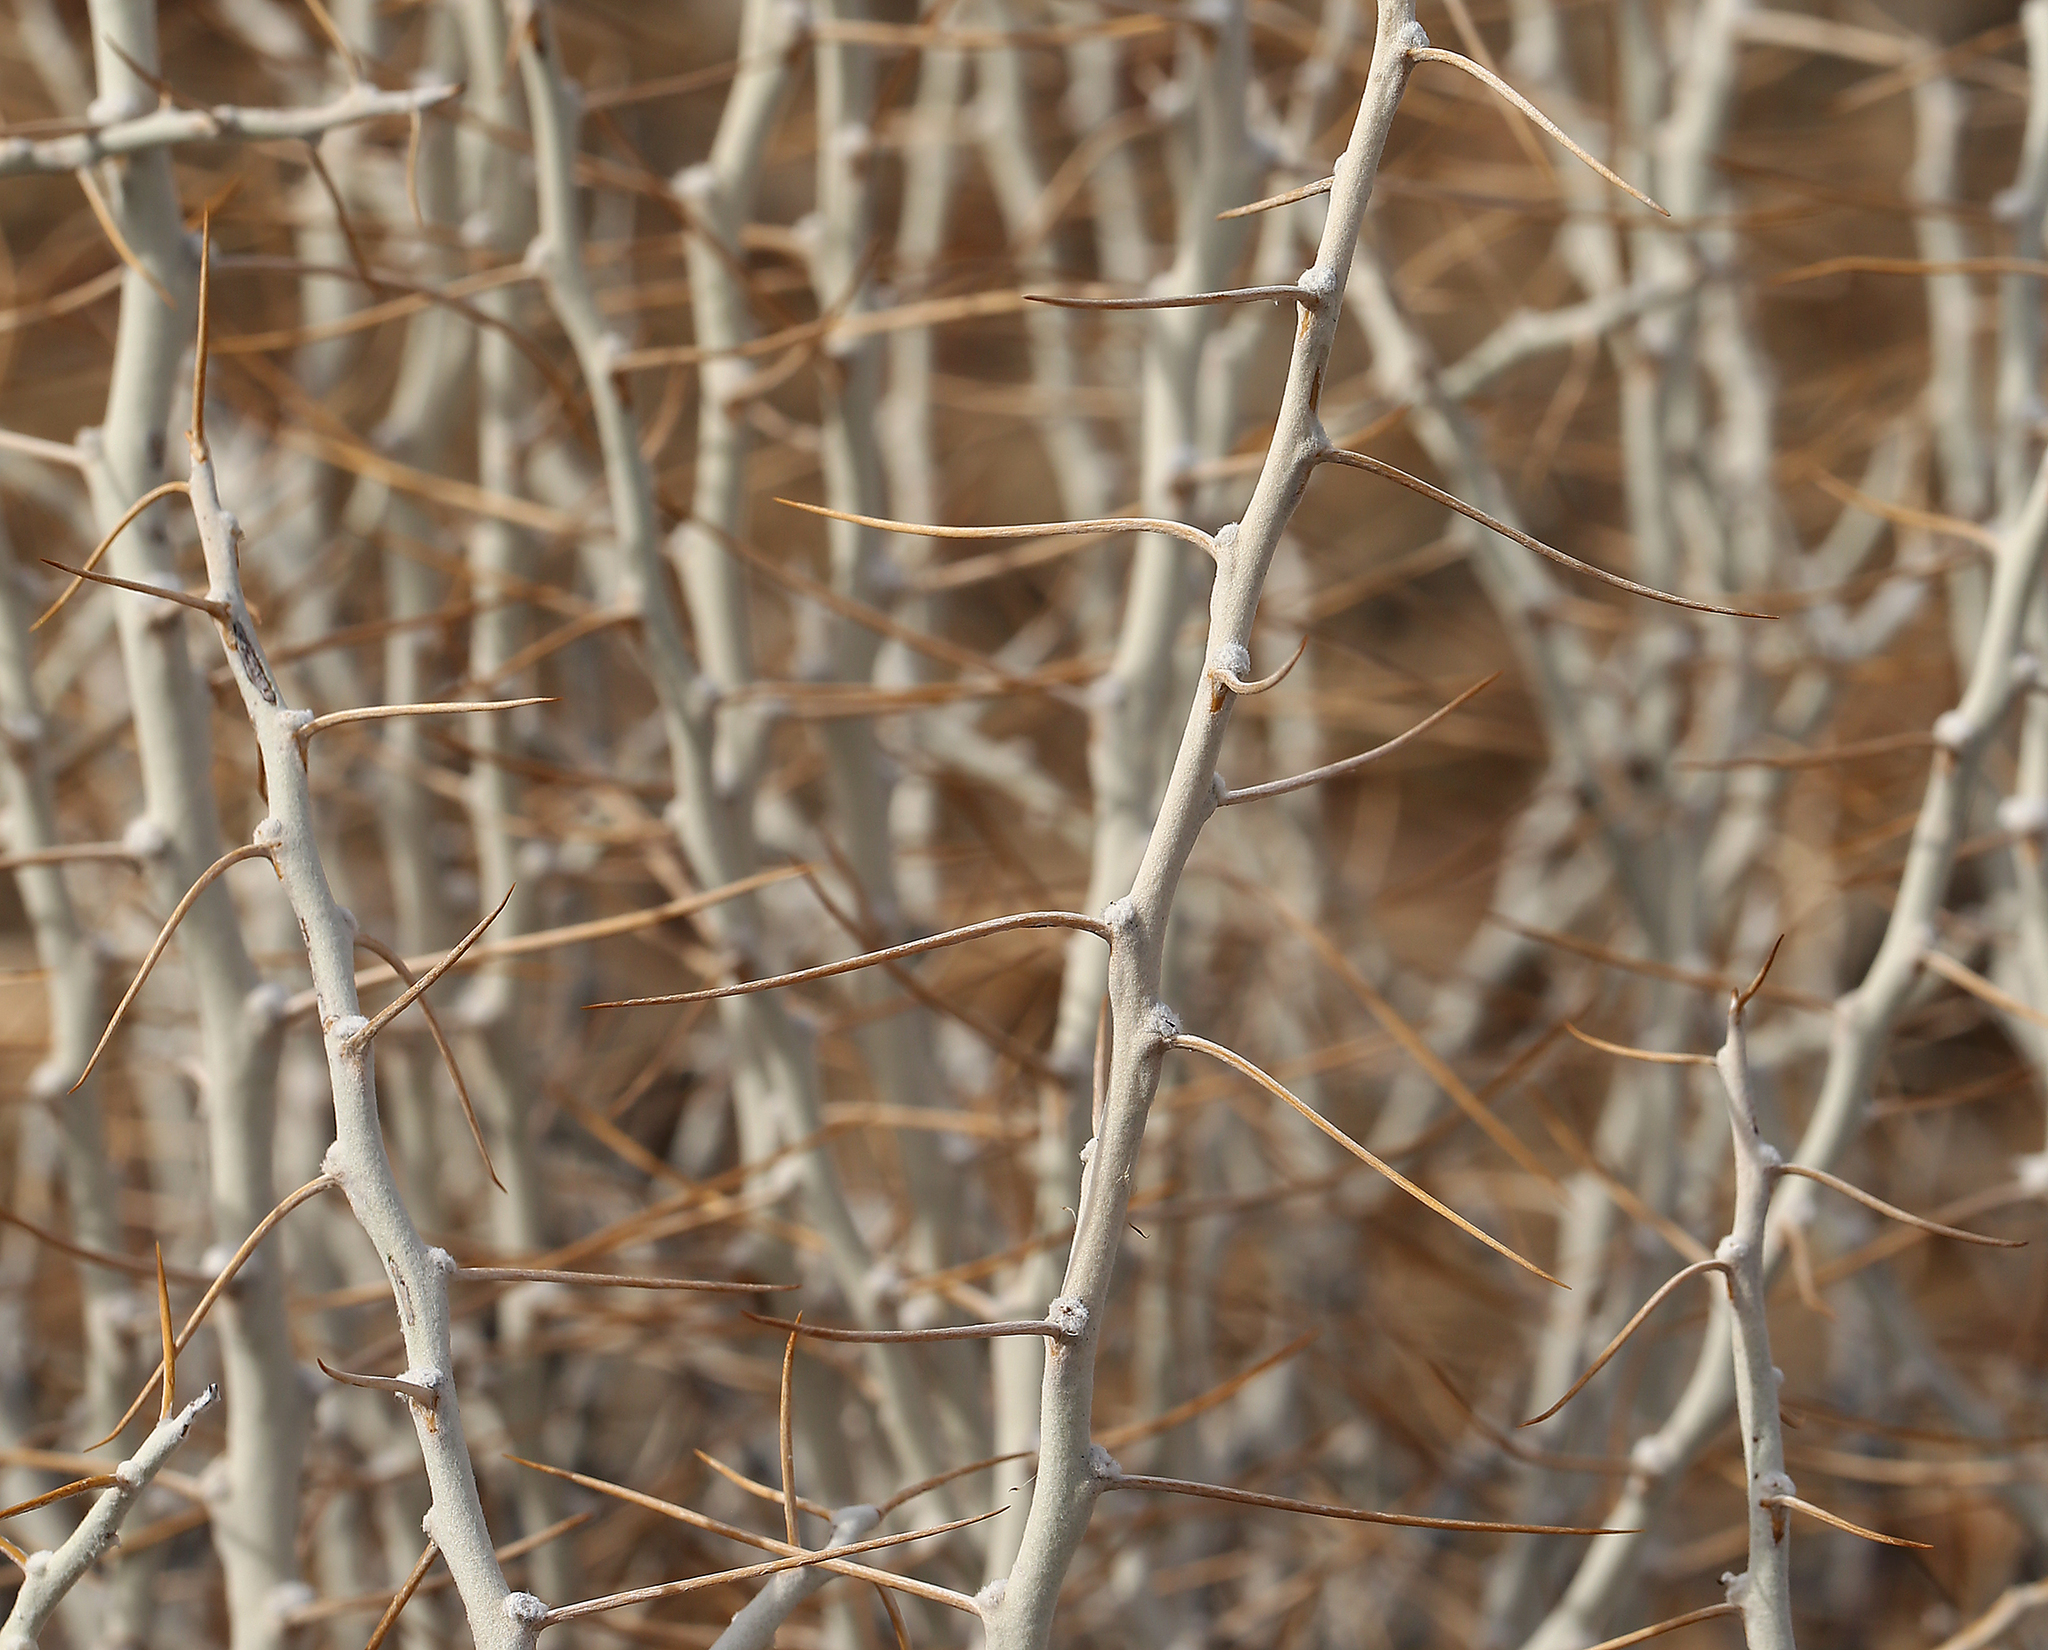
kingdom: Plantae
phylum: Tracheophyta
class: Magnoliopsida
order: Asterales
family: Asteraceae
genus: Tetradymia
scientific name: Tetradymia axillaris
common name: Long-spine horsebrush
